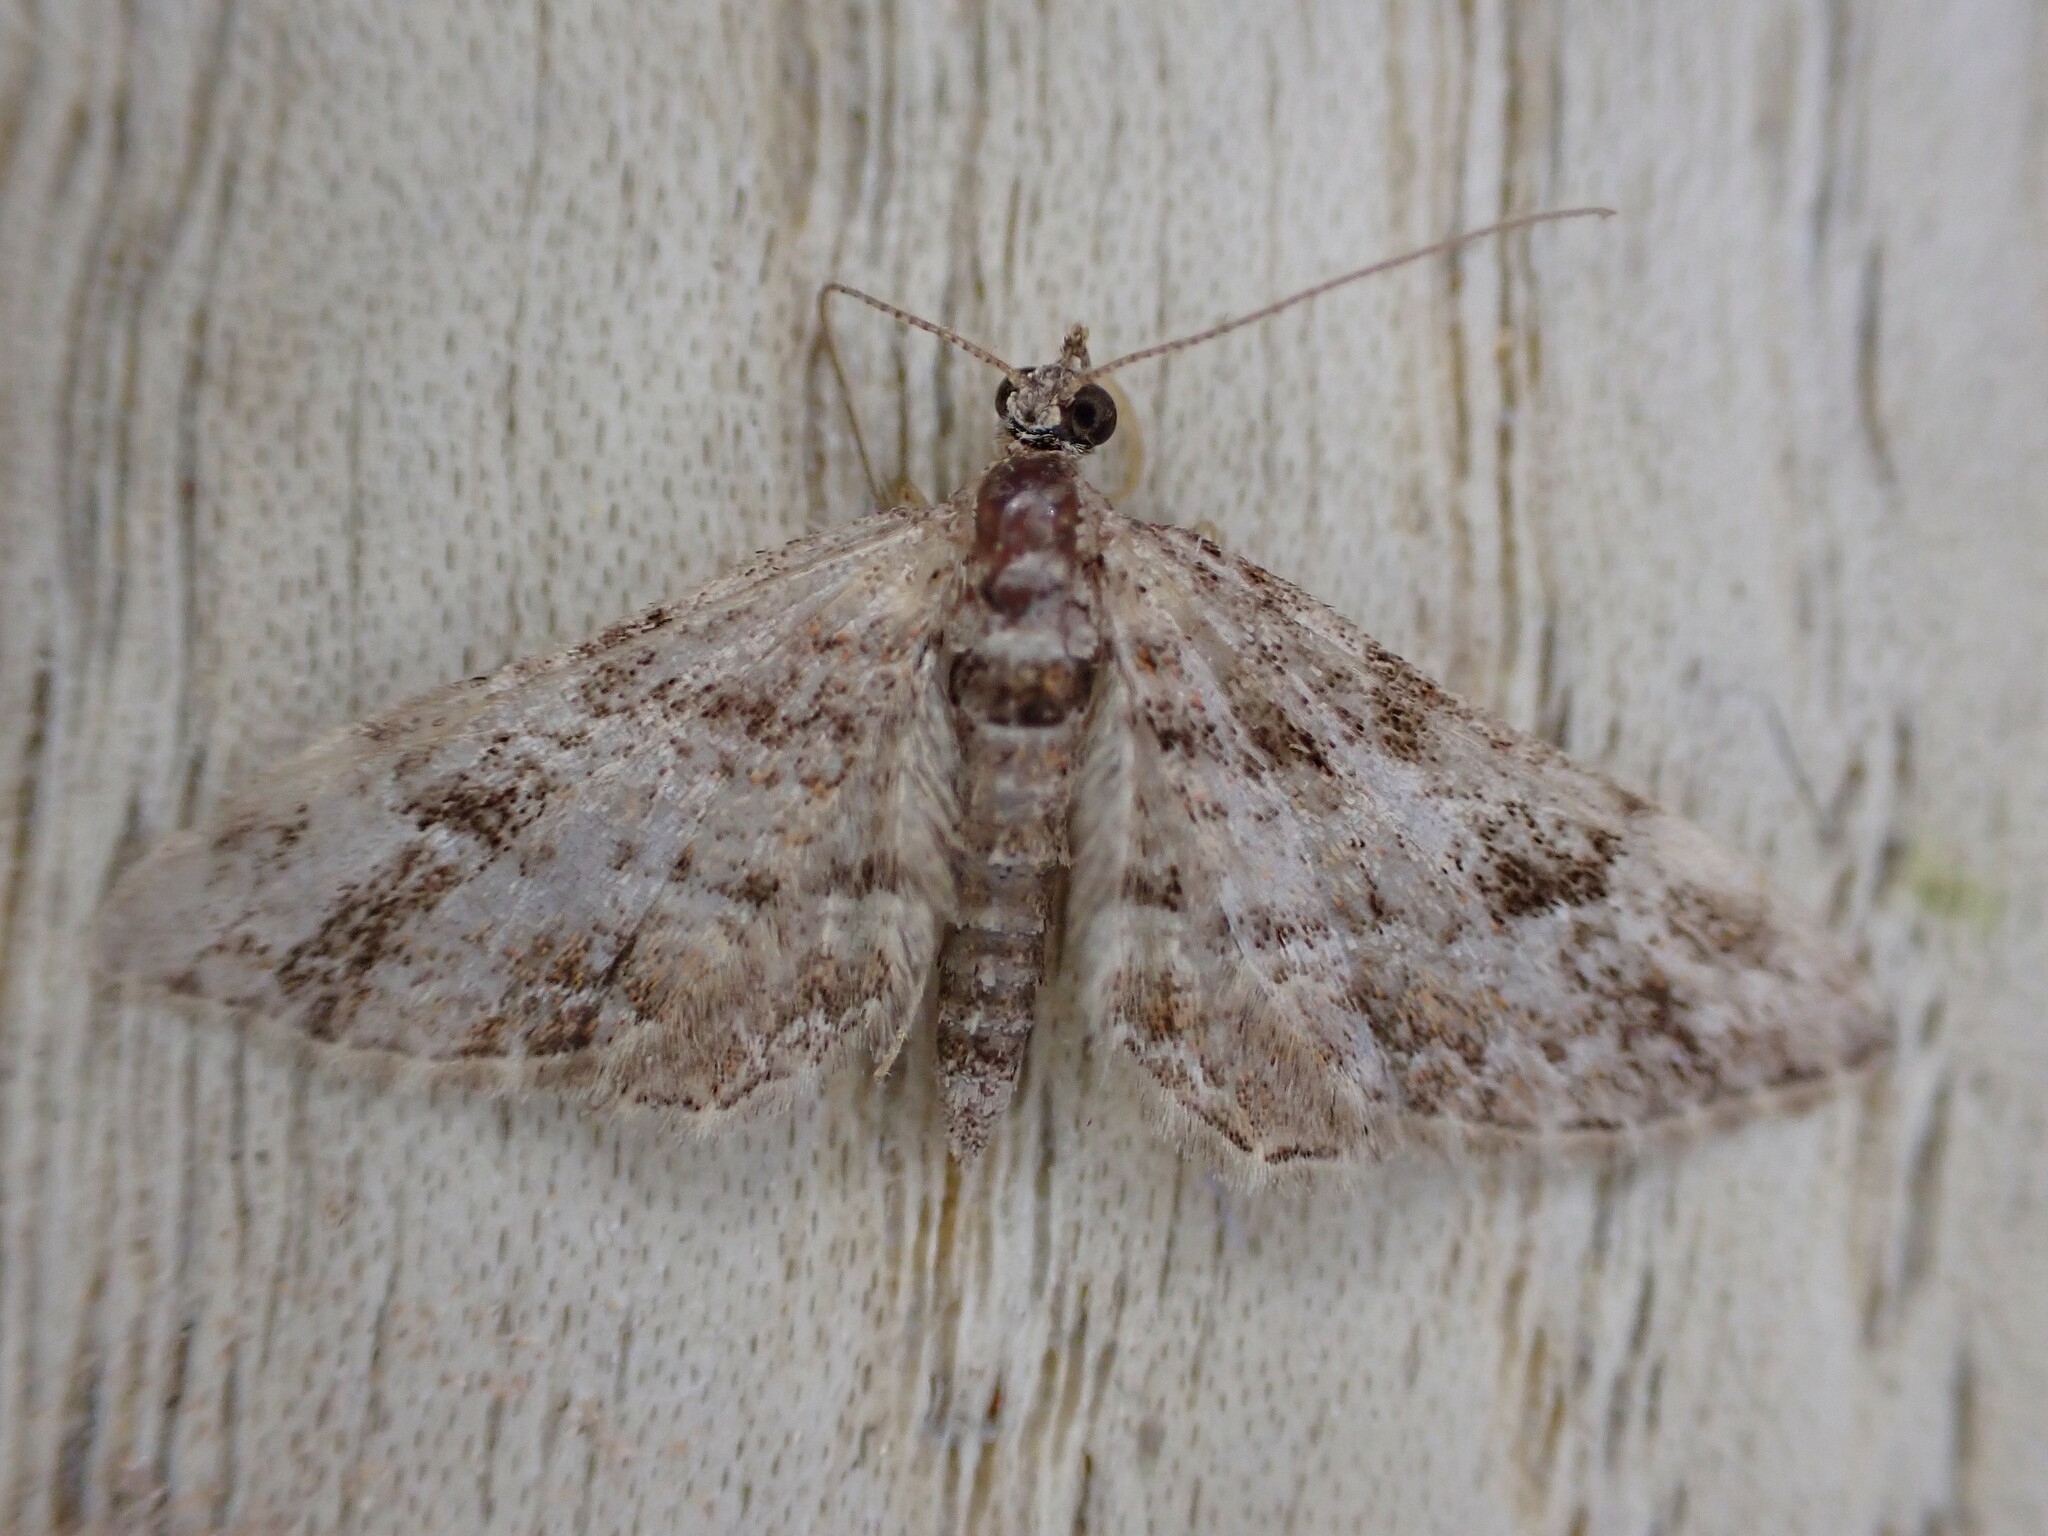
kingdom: Animalia
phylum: Arthropoda
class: Insecta
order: Lepidoptera
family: Geometridae
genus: Gymnoscelis
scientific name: Gymnoscelis rufifasciata
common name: Double-striped pug
